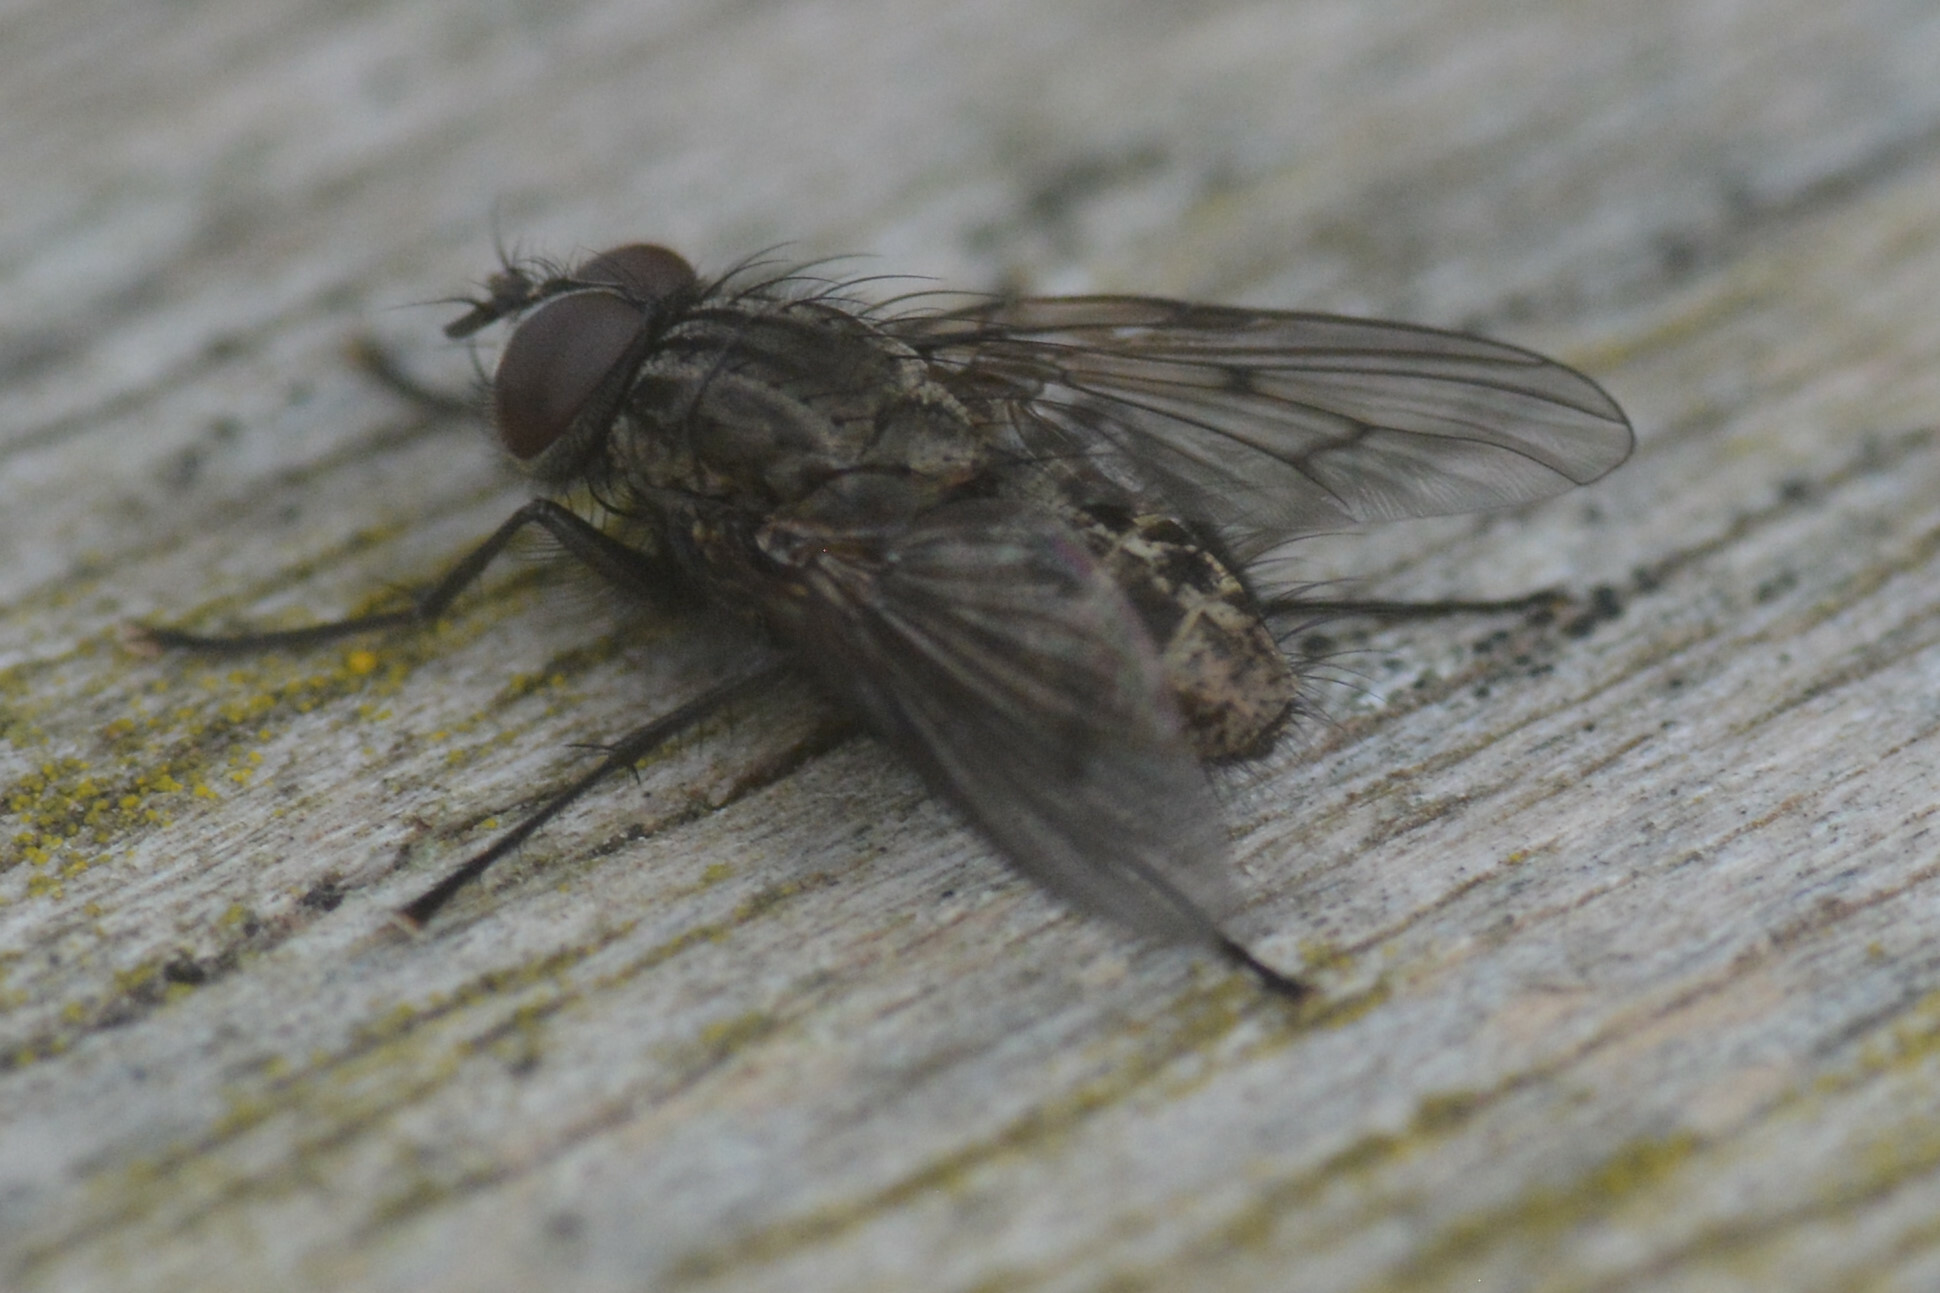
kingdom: Animalia
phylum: Arthropoda
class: Insecta
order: Diptera
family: Muscidae
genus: Helina
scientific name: Helina evecta
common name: Muscid fly
